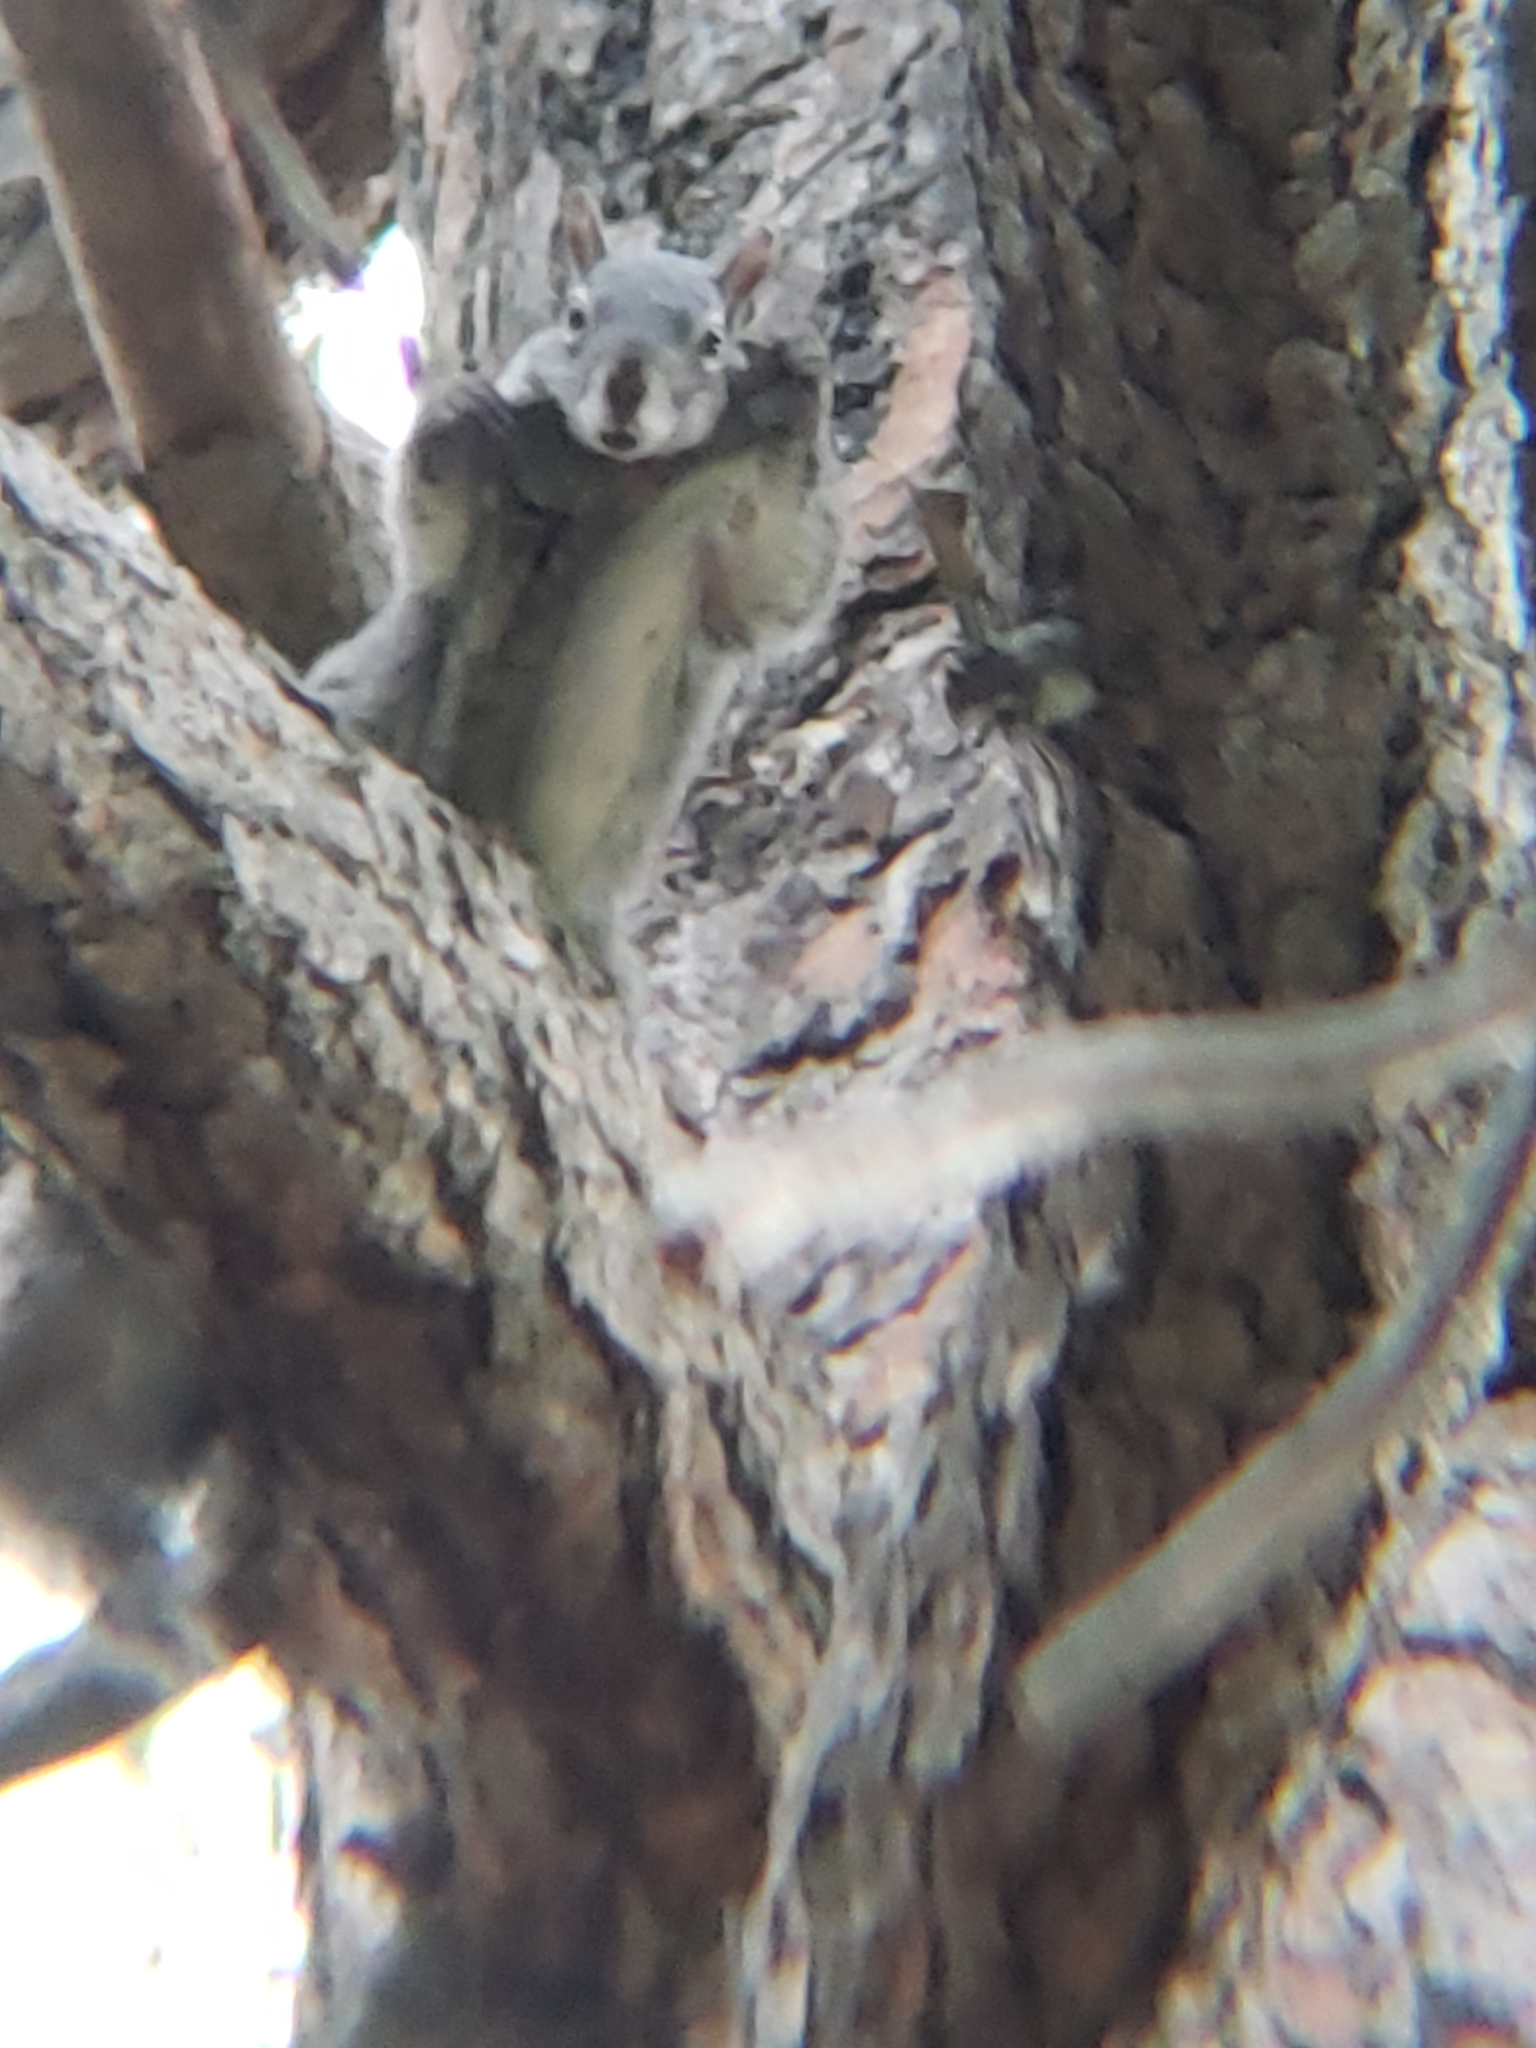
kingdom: Animalia
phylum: Chordata
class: Mammalia
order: Rodentia
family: Sciuridae
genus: Sciurus
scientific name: Sciurus griseus
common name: Western gray squirrel
